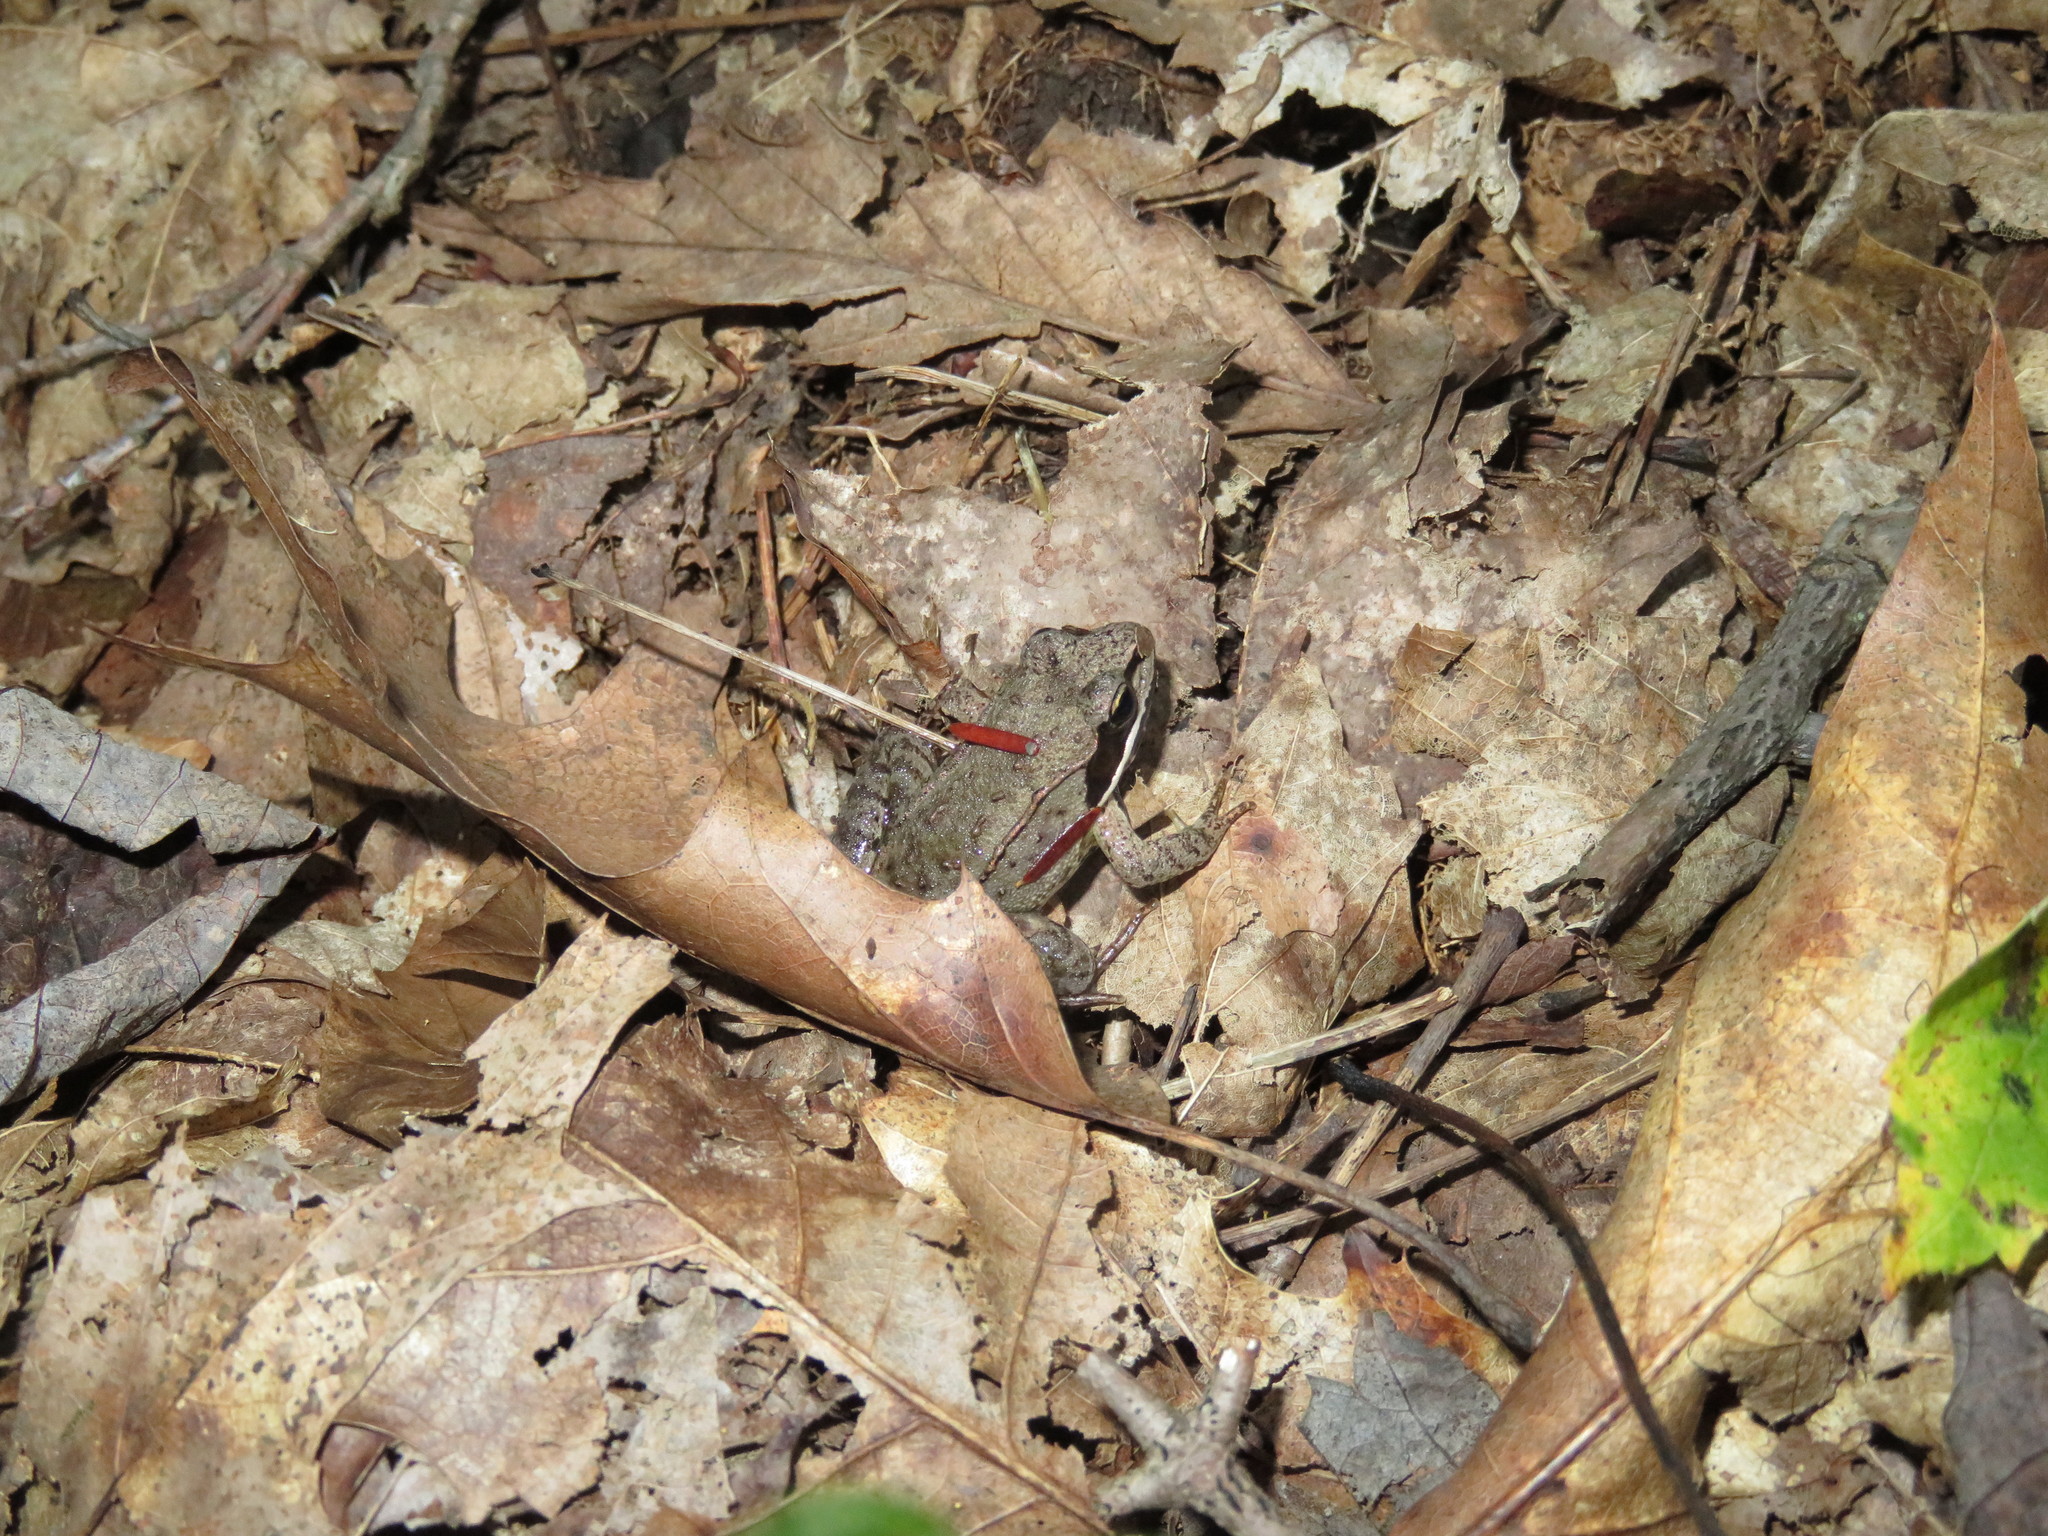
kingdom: Animalia
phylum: Chordata
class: Amphibia
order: Anura
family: Ranidae
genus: Lithobates
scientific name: Lithobates sylvaticus
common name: Wood frog
